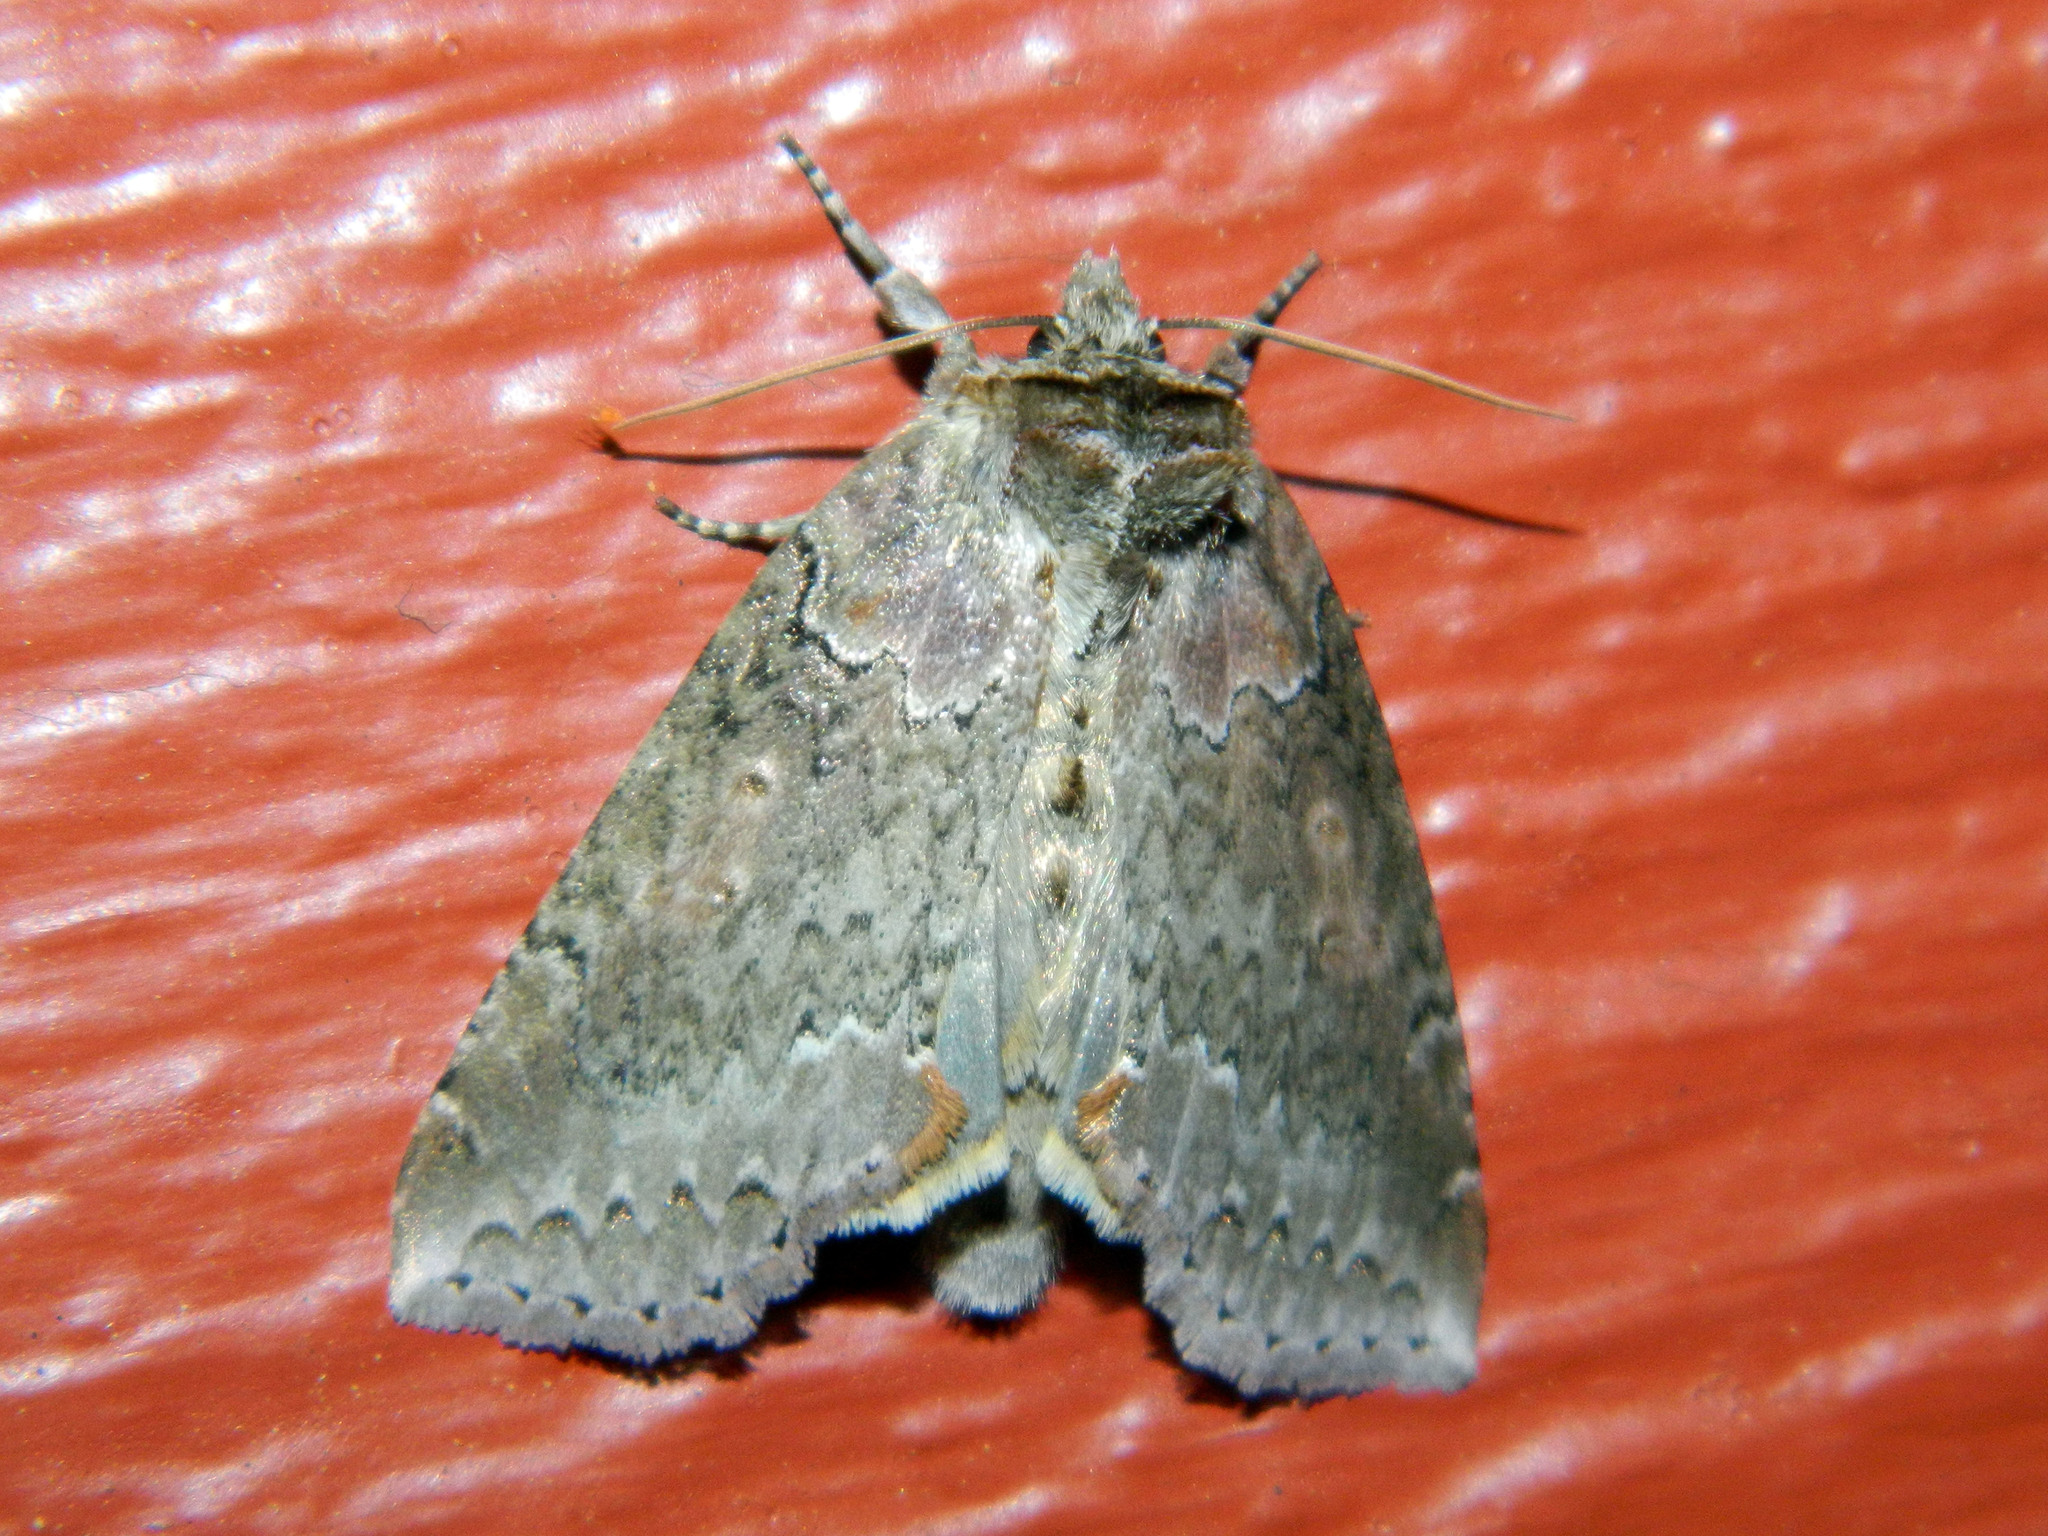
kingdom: Animalia
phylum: Arthropoda
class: Insecta
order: Lepidoptera
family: Drepanidae
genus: Pseudothyatira
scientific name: Pseudothyatira cymatophoroides
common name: Tufted thyatirid moth
